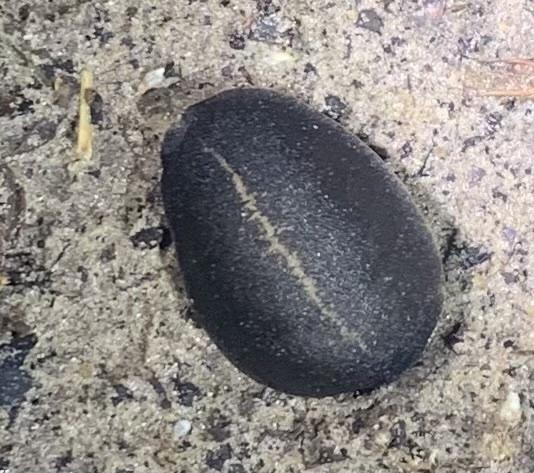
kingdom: Animalia
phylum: Mollusca
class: Gastropoda
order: Systellommatophora
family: Veronicellidae
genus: Laevicaulis
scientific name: Laevicaulis alte
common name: Tropical leatherleaf
